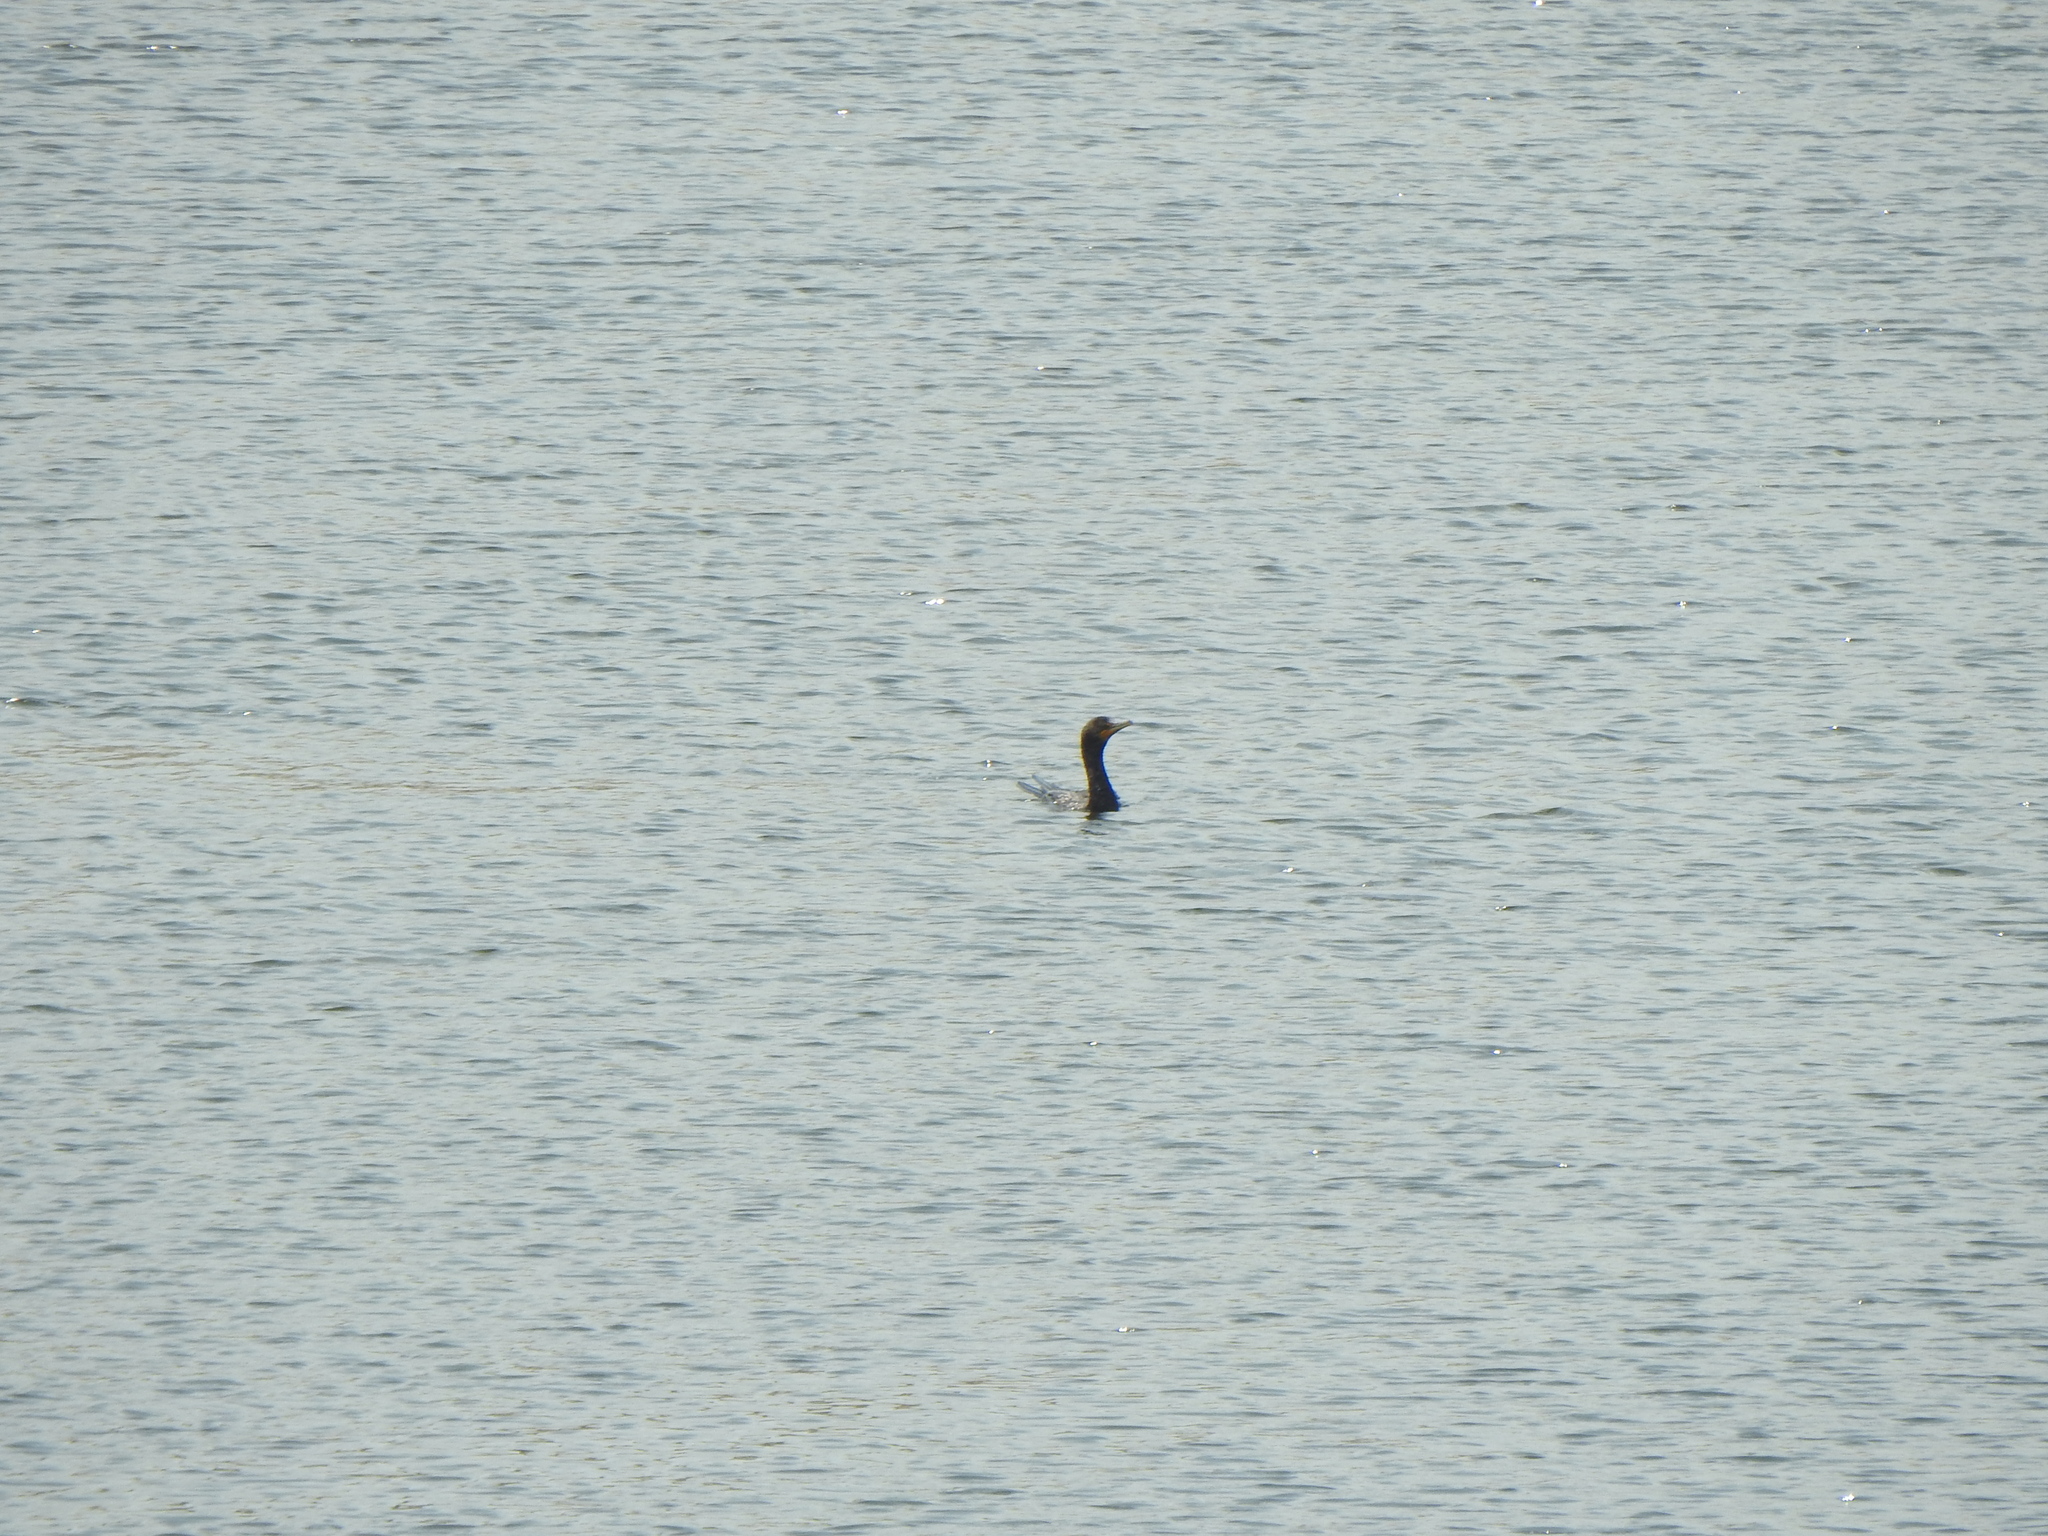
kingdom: Animalia
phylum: Chordata
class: Aves
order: Suliformes
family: Phalacrocoracidae
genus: Phalacrocorax
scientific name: Phalacrocorax auritus
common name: Double-crested cormorant
